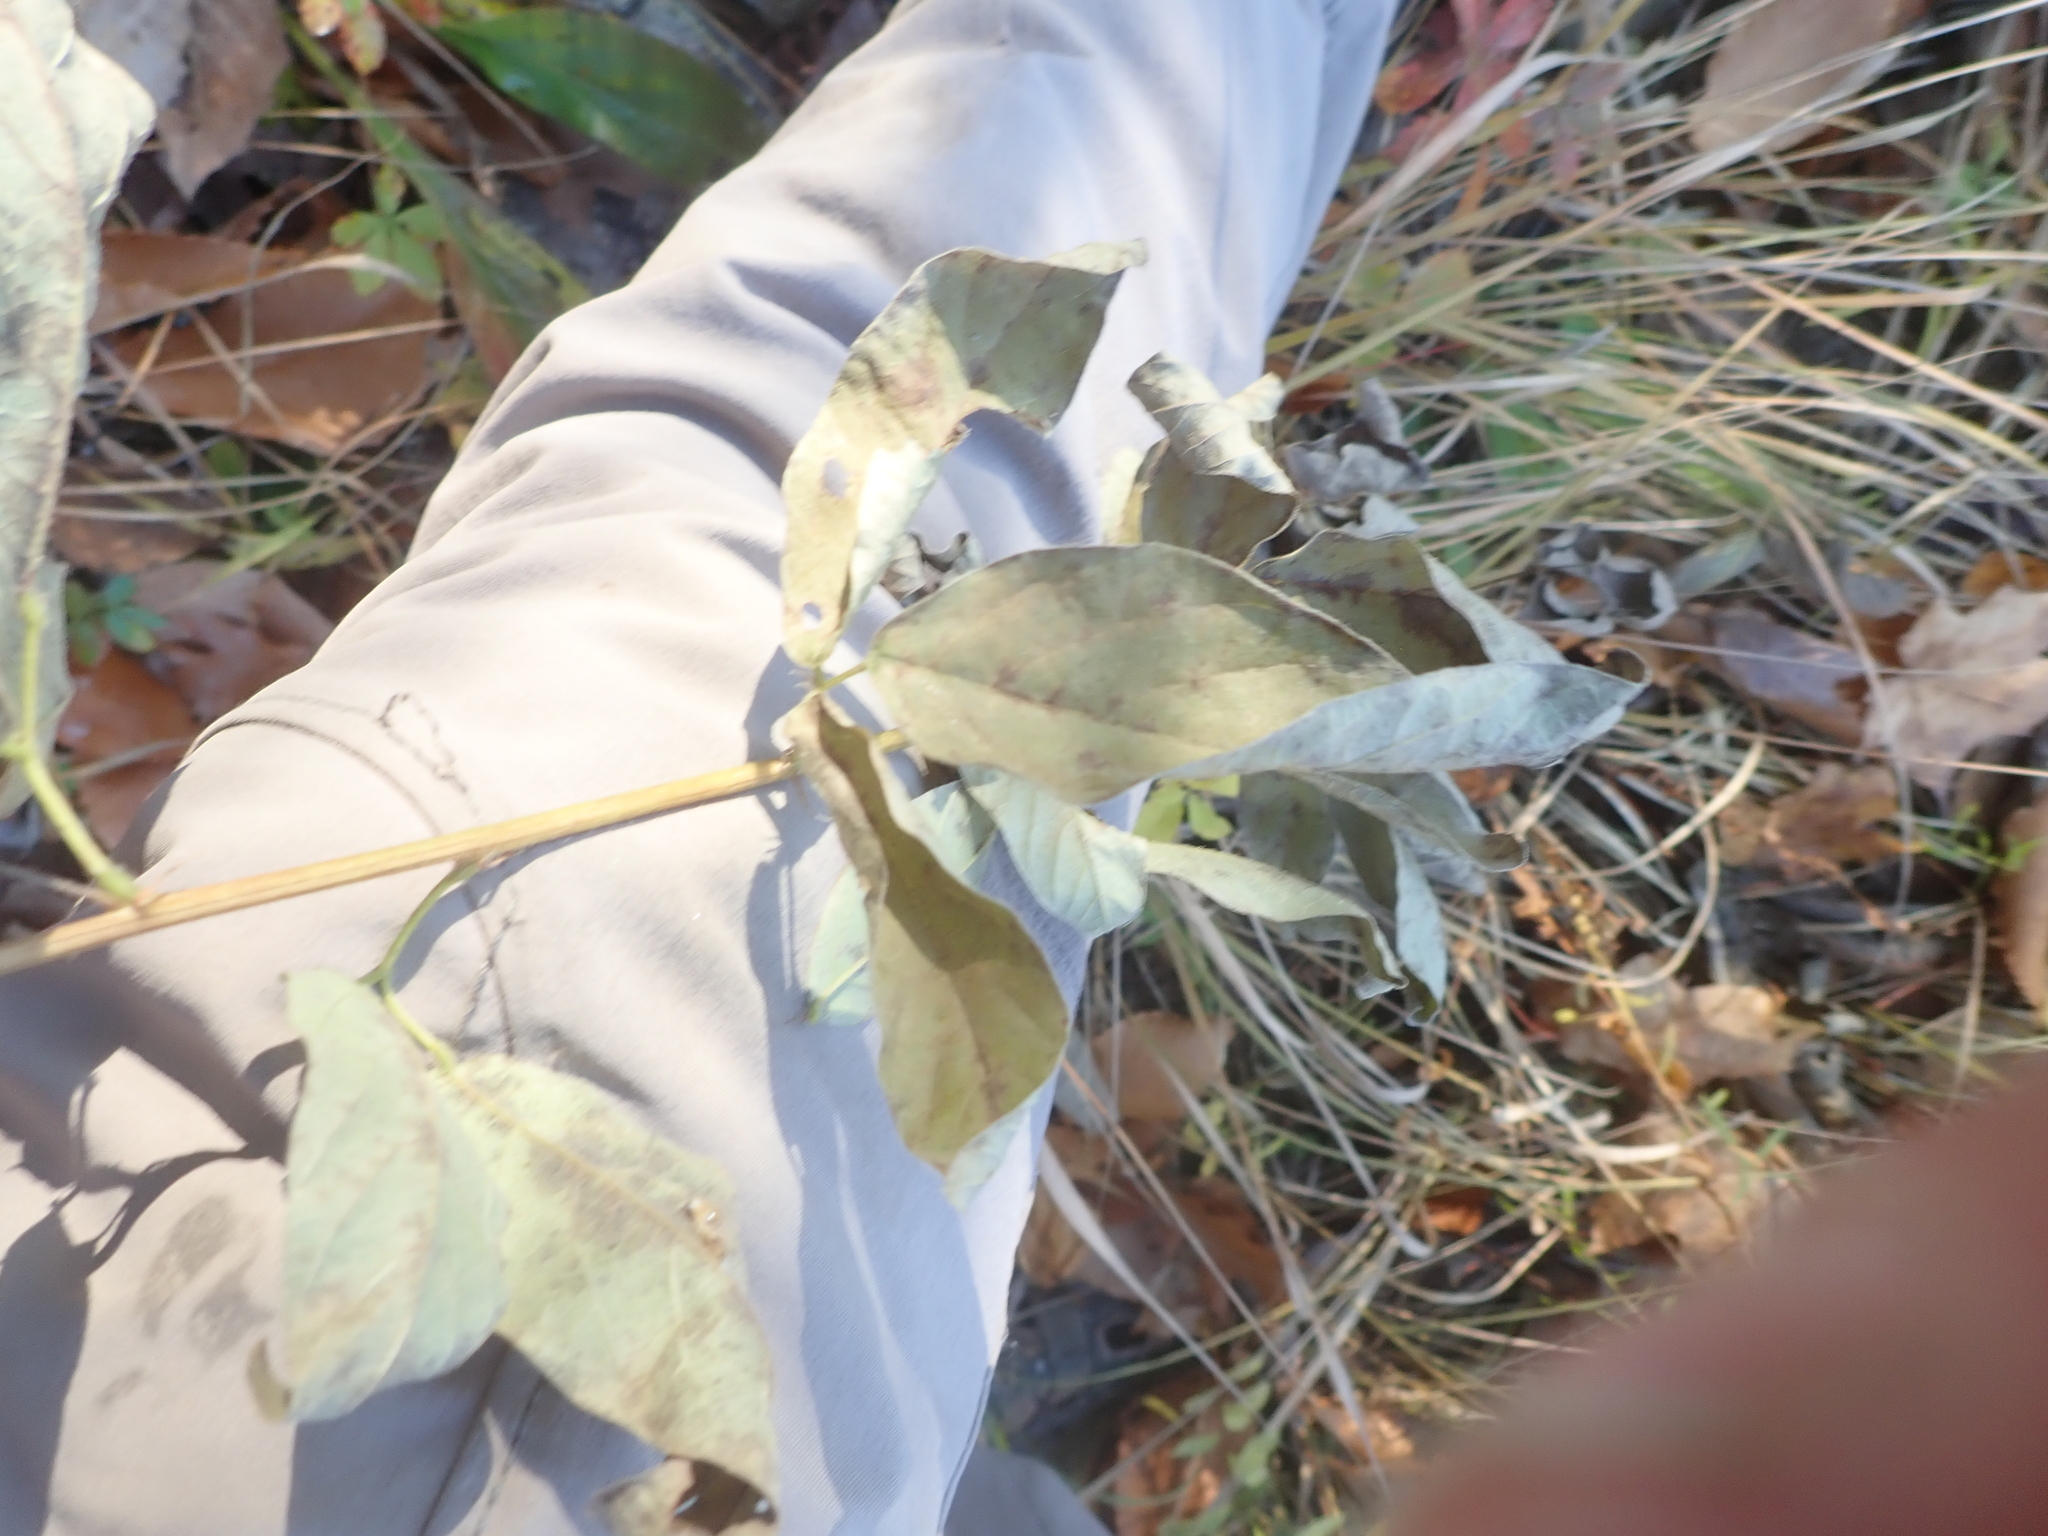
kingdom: Plantae
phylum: Tracheophyta
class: Magnoliopsida
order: Fabales
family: Fabaceae
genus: Desmodium
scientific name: Desmodium canadense
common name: Canada tick-trefoil
